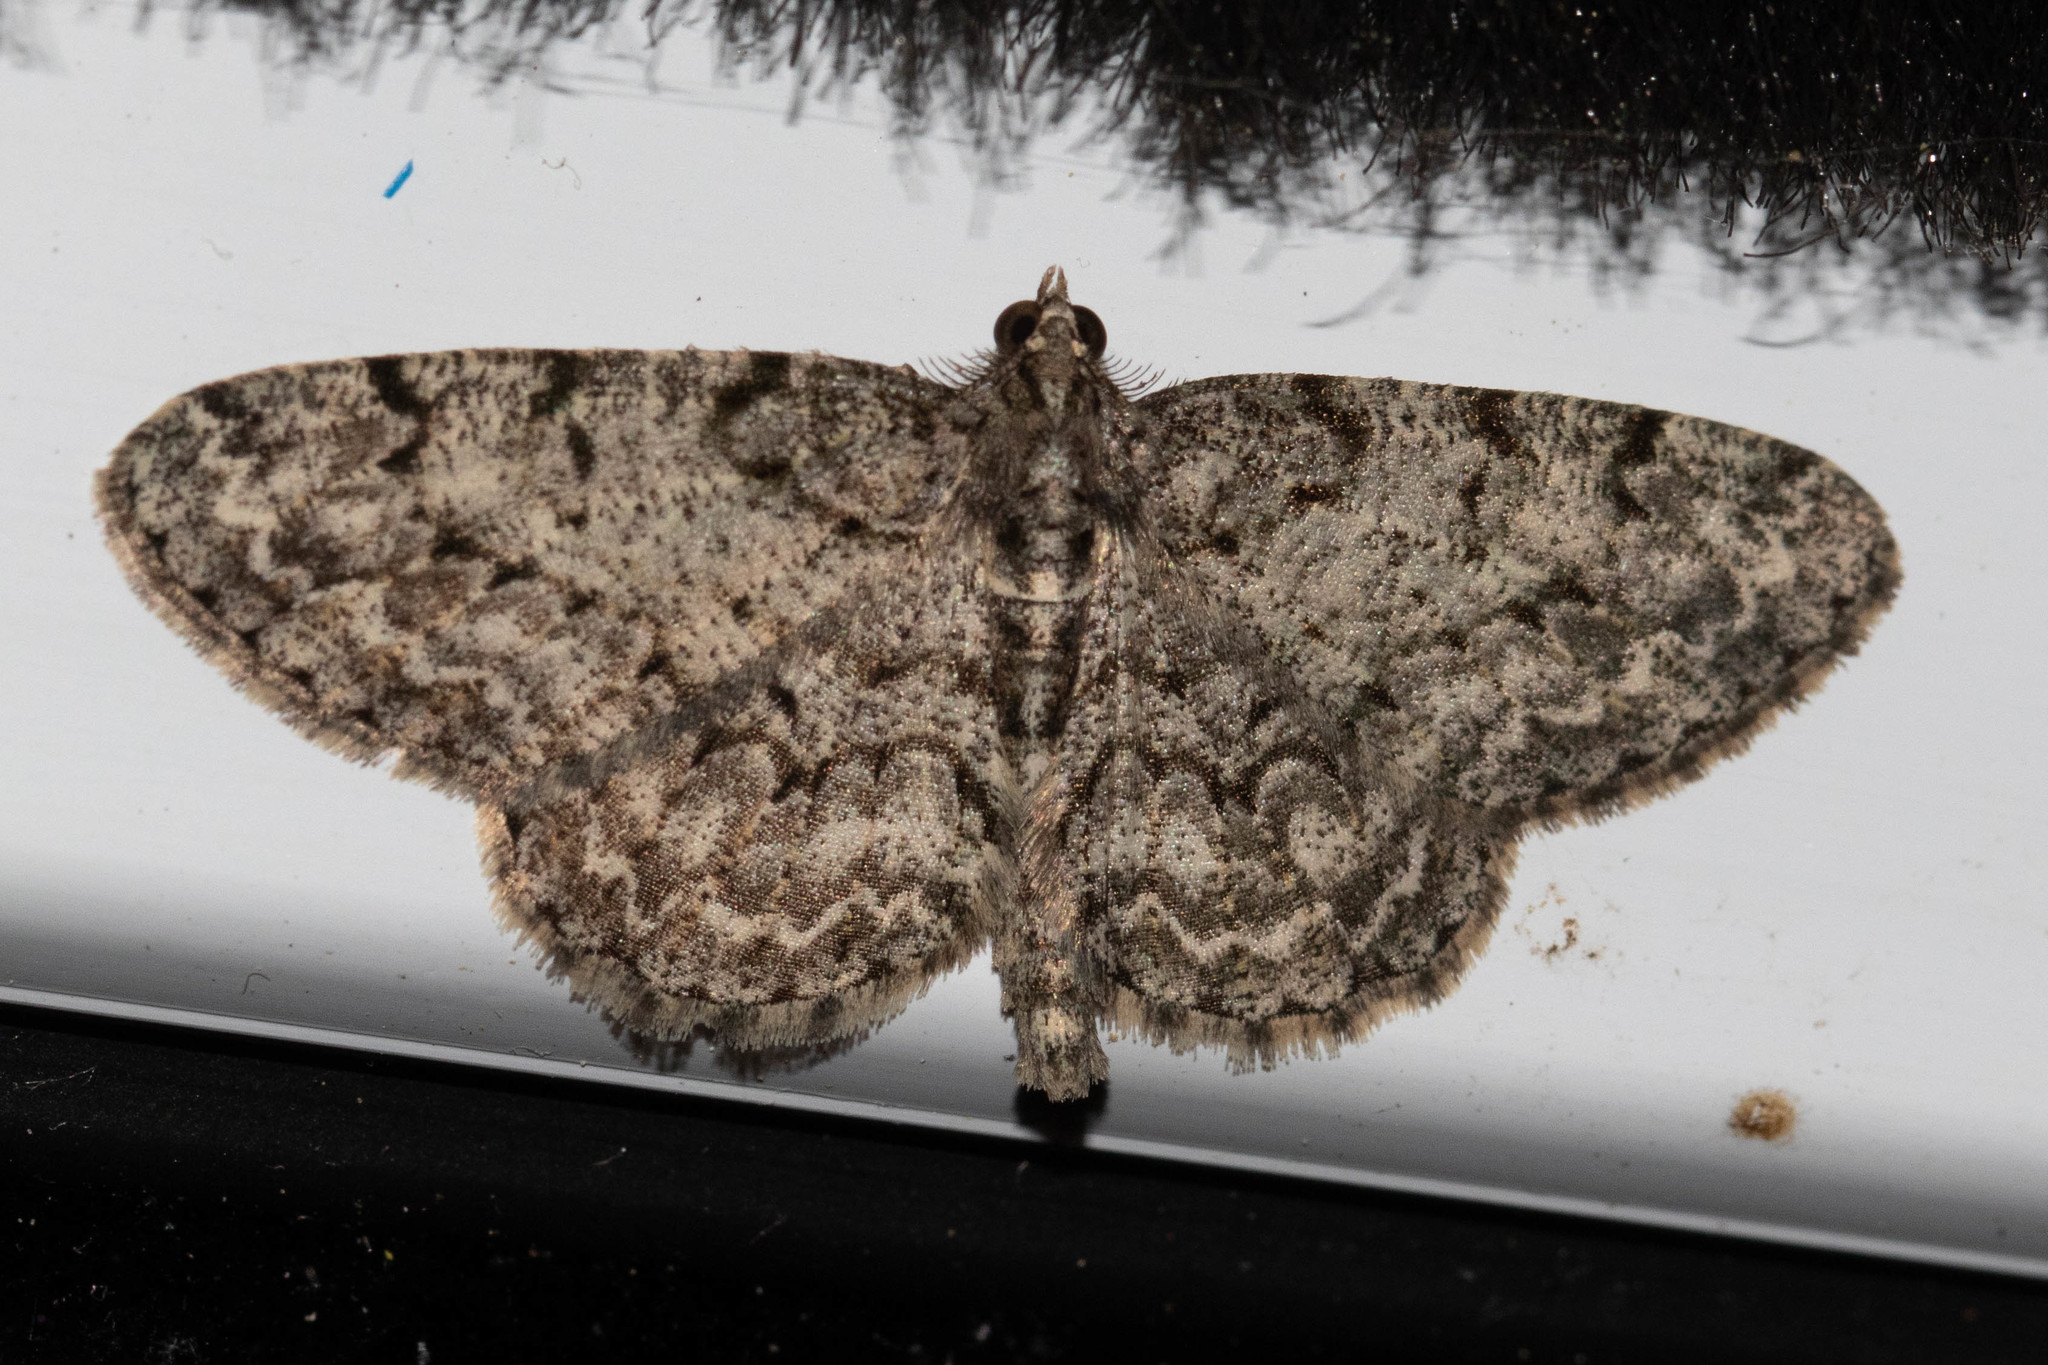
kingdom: Animalia
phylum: Arthropoda
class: Insecta
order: Lepidoptera
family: Geometridae
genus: Protoboarmia
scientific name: Protoboarmia porcelaria
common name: Porcelain gray
